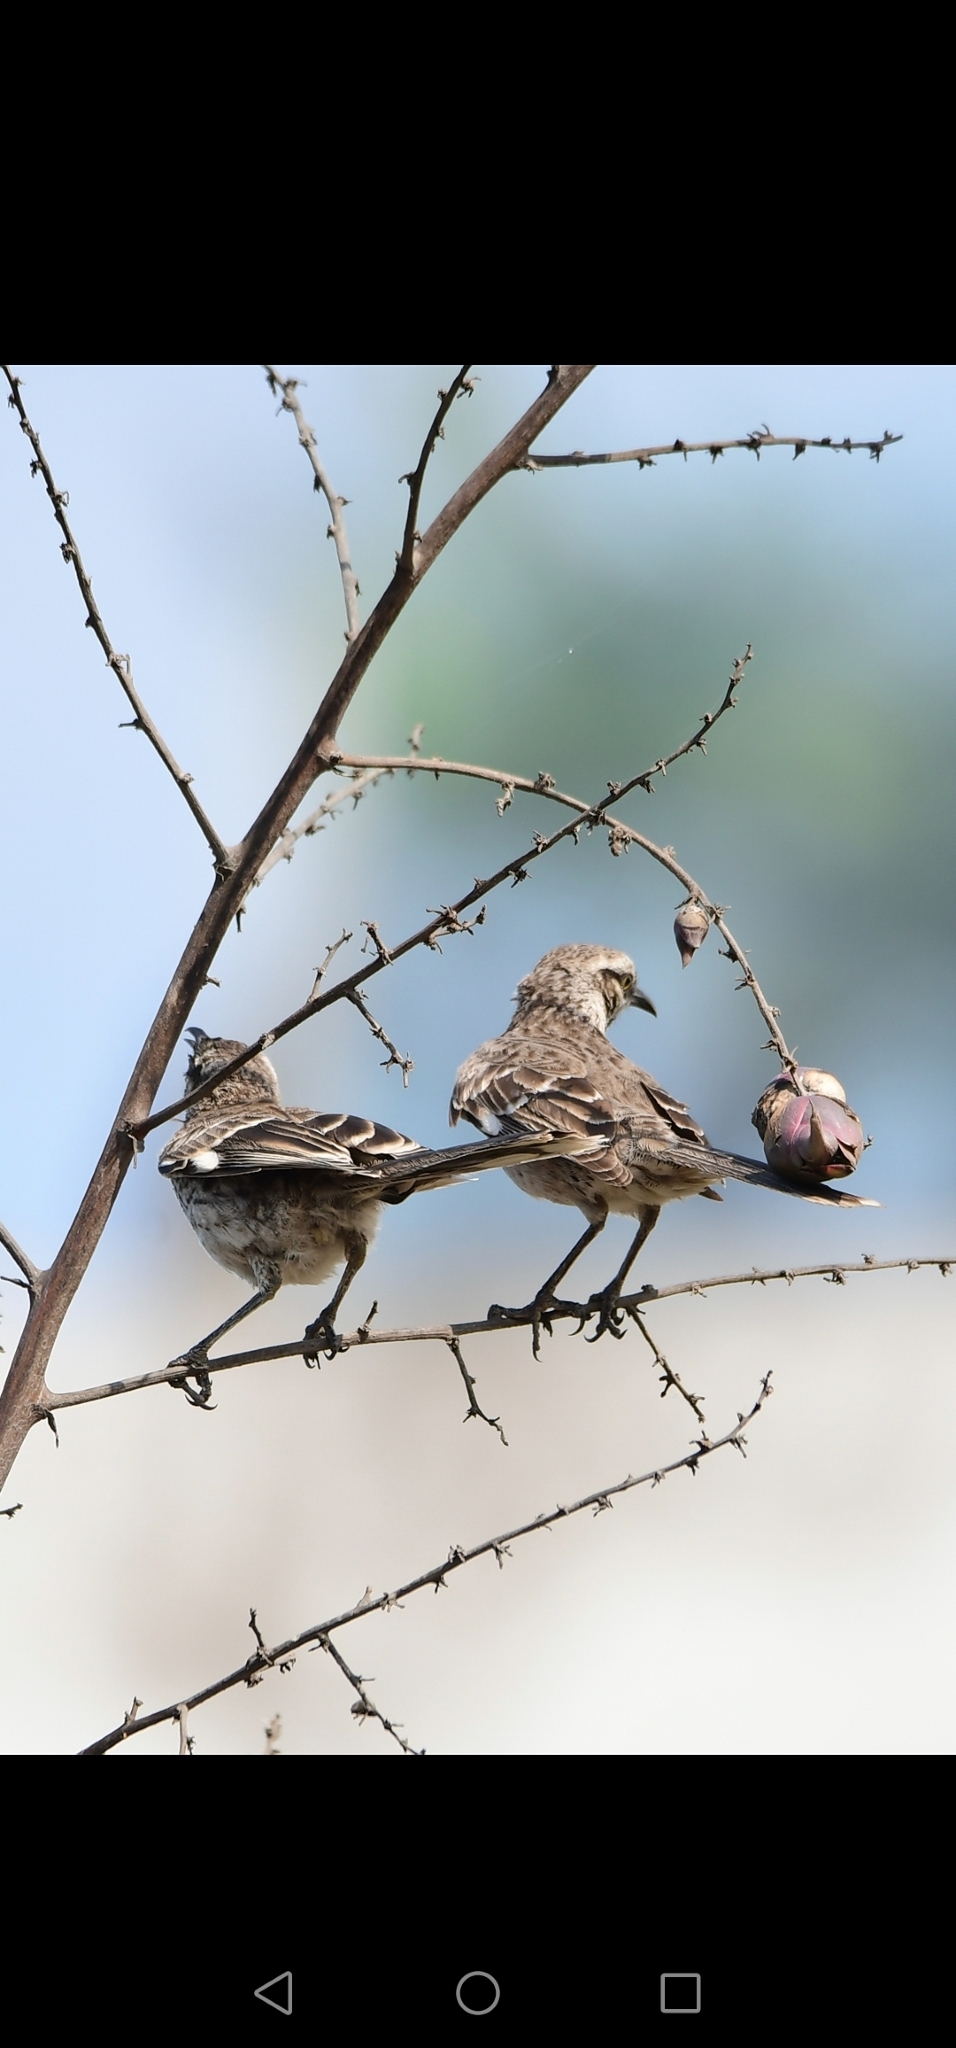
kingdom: Animalia
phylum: Chordata
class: Aves
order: Passeriformes
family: Mimidae
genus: Mimus
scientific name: Mimus longicaudatus
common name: Long-tailed mockingbird
